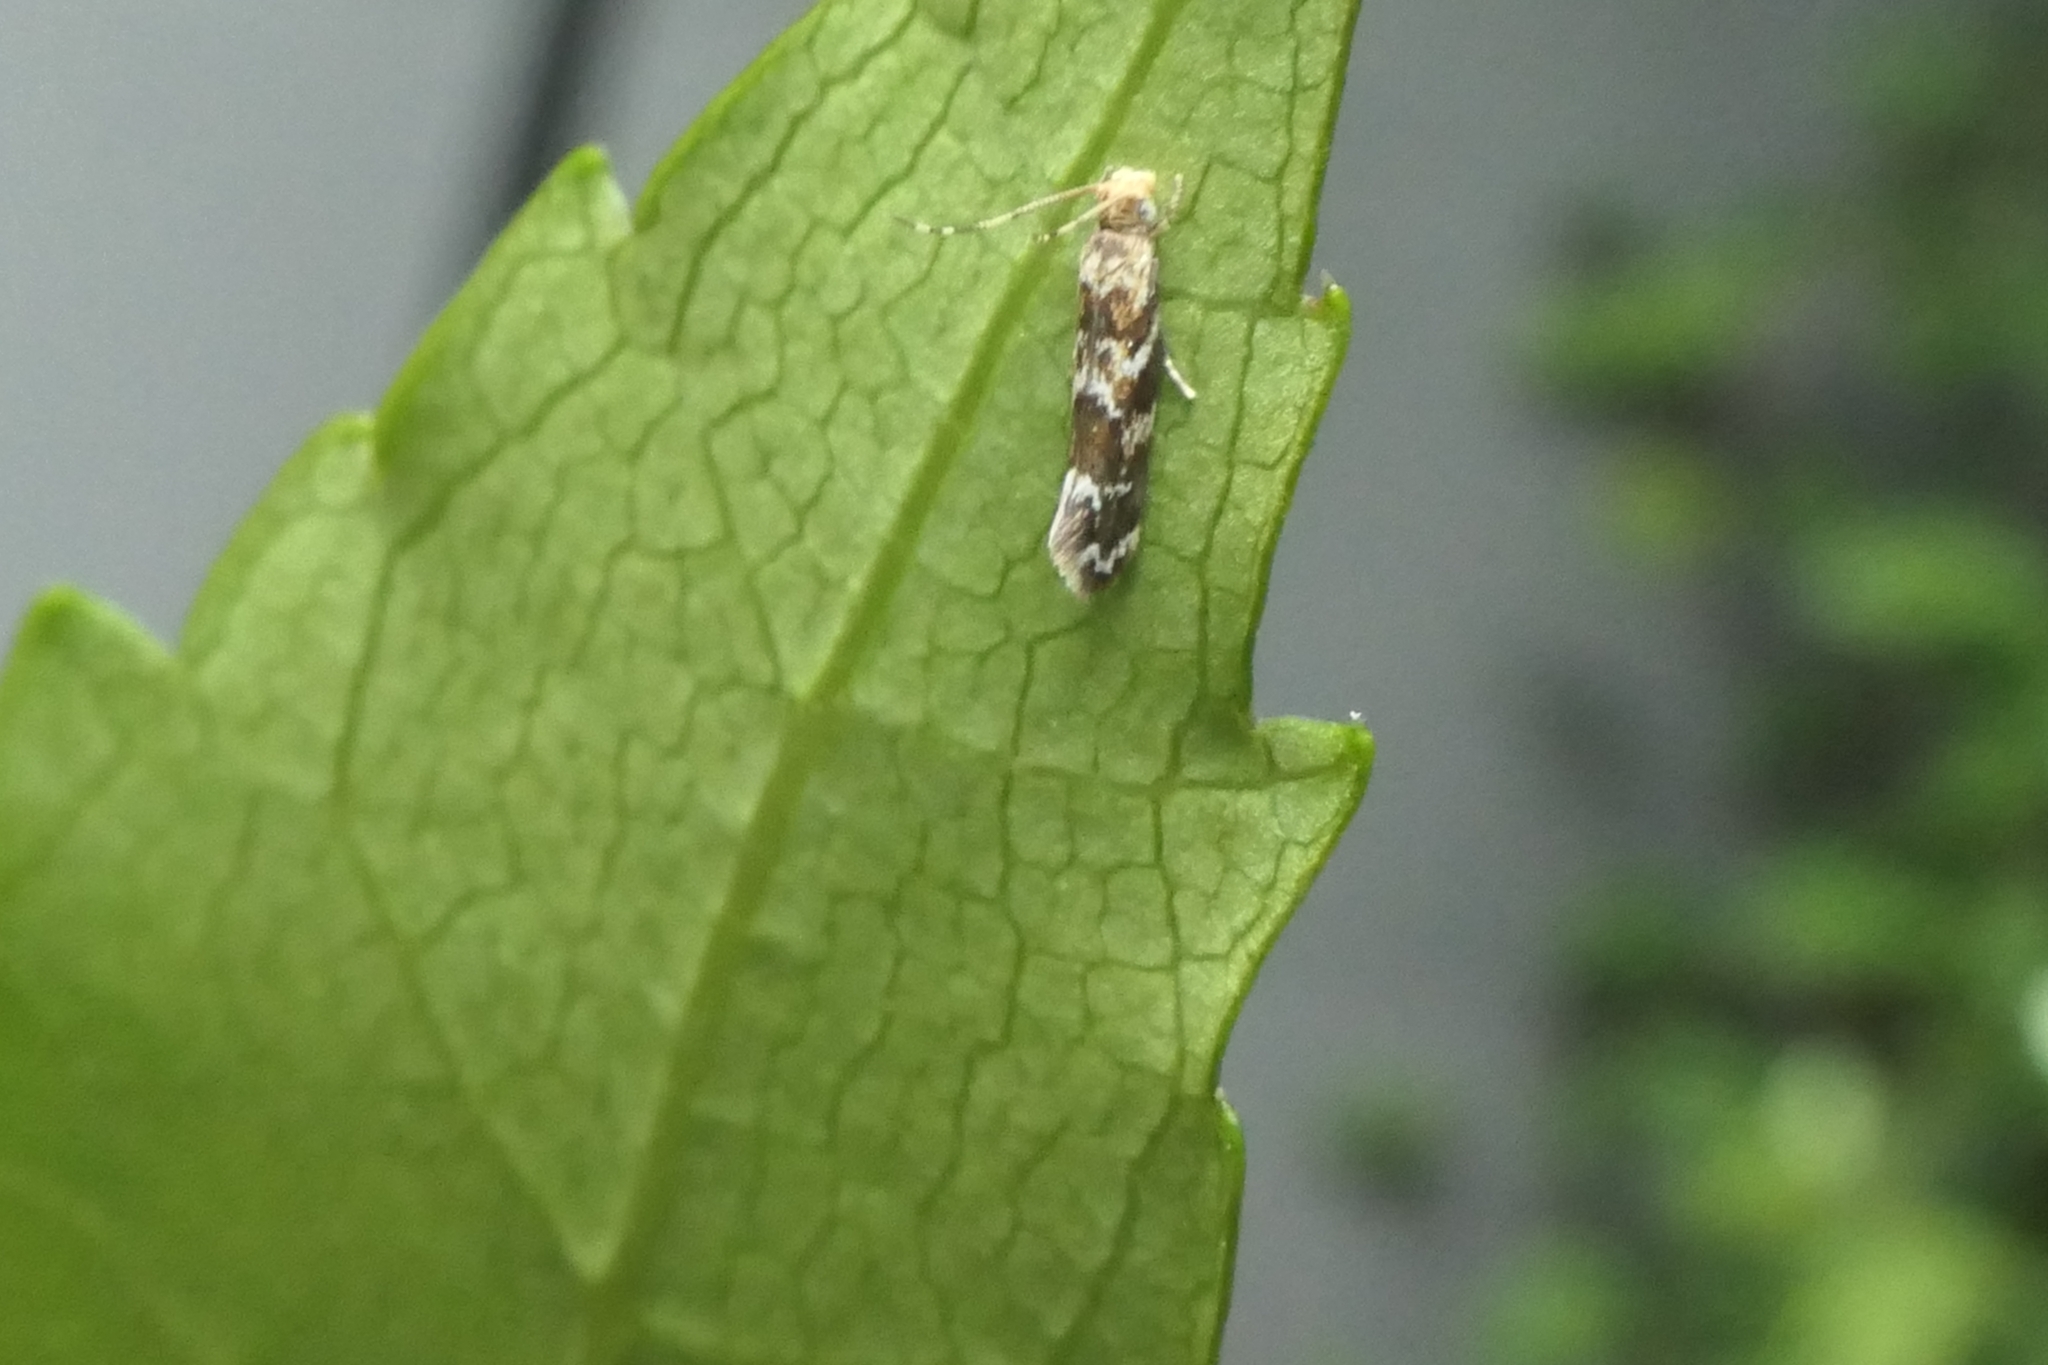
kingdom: Animalia
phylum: Arthropoda
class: Insecta
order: Lepidoptera
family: Dryadaulidae
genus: Dryadaula
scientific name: Dryadaula pactolia
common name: Cellar clothes
